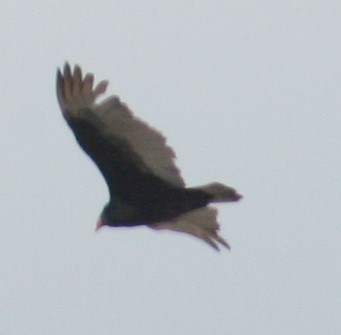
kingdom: Animalia
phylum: Chordata
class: Aves
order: Accipitriformes
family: Cathartidae
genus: Cathartes
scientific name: Cathartes aura
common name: Turkey vulture
